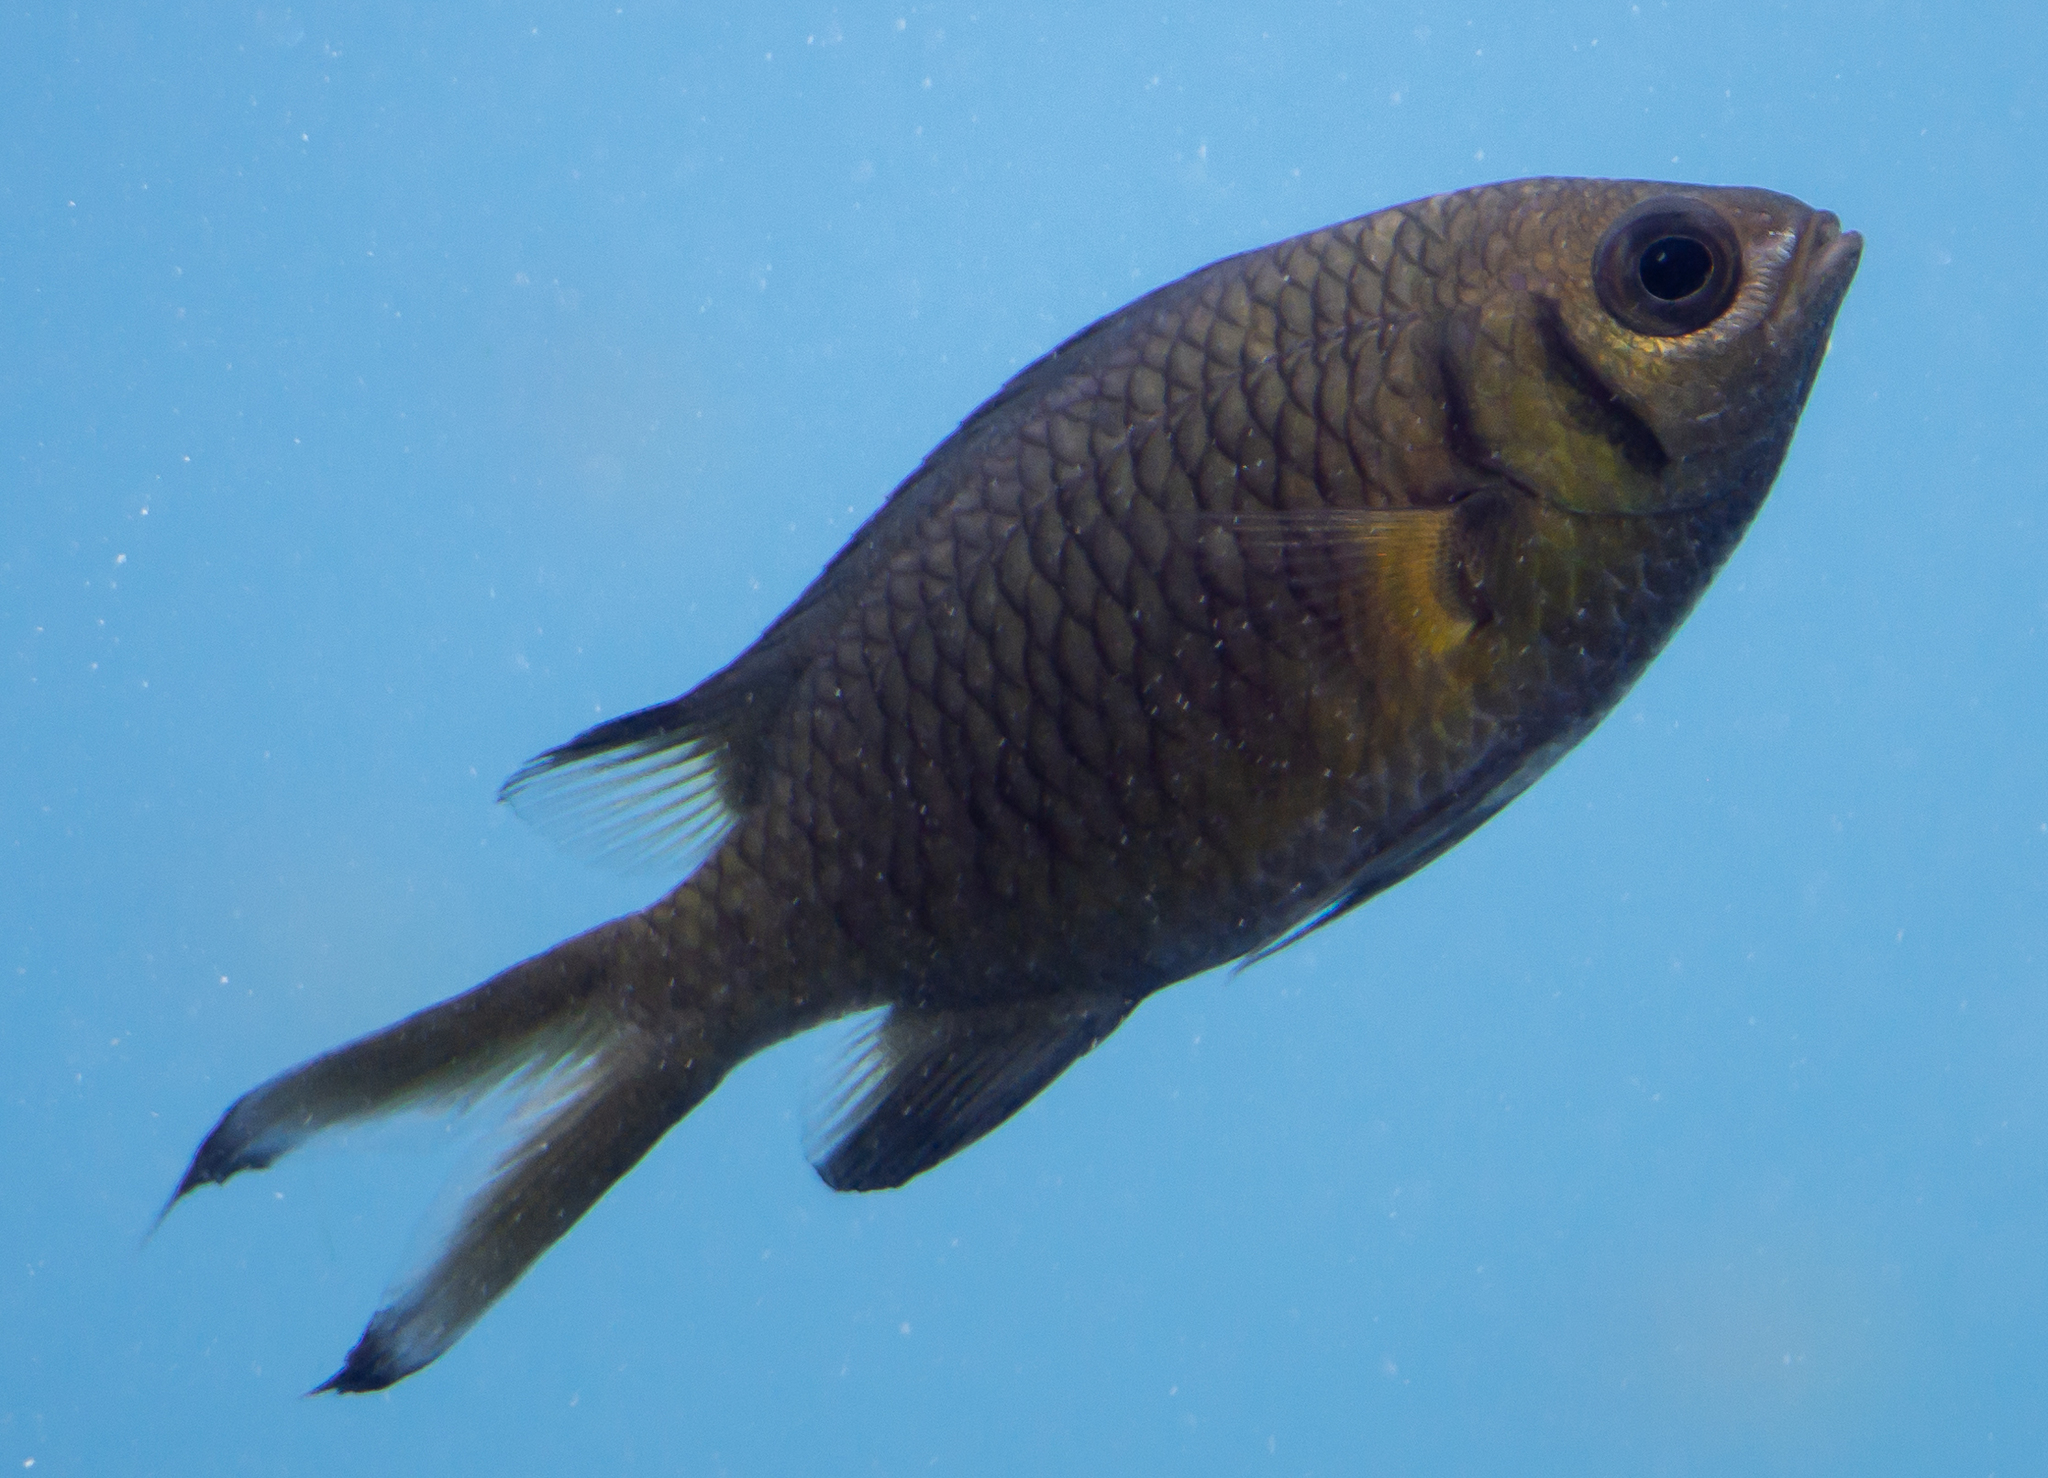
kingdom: Animalia
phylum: Chordata
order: Perciformes
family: Pomacentridae
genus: Chromis
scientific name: Chromis weberi
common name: Weber's chromis
